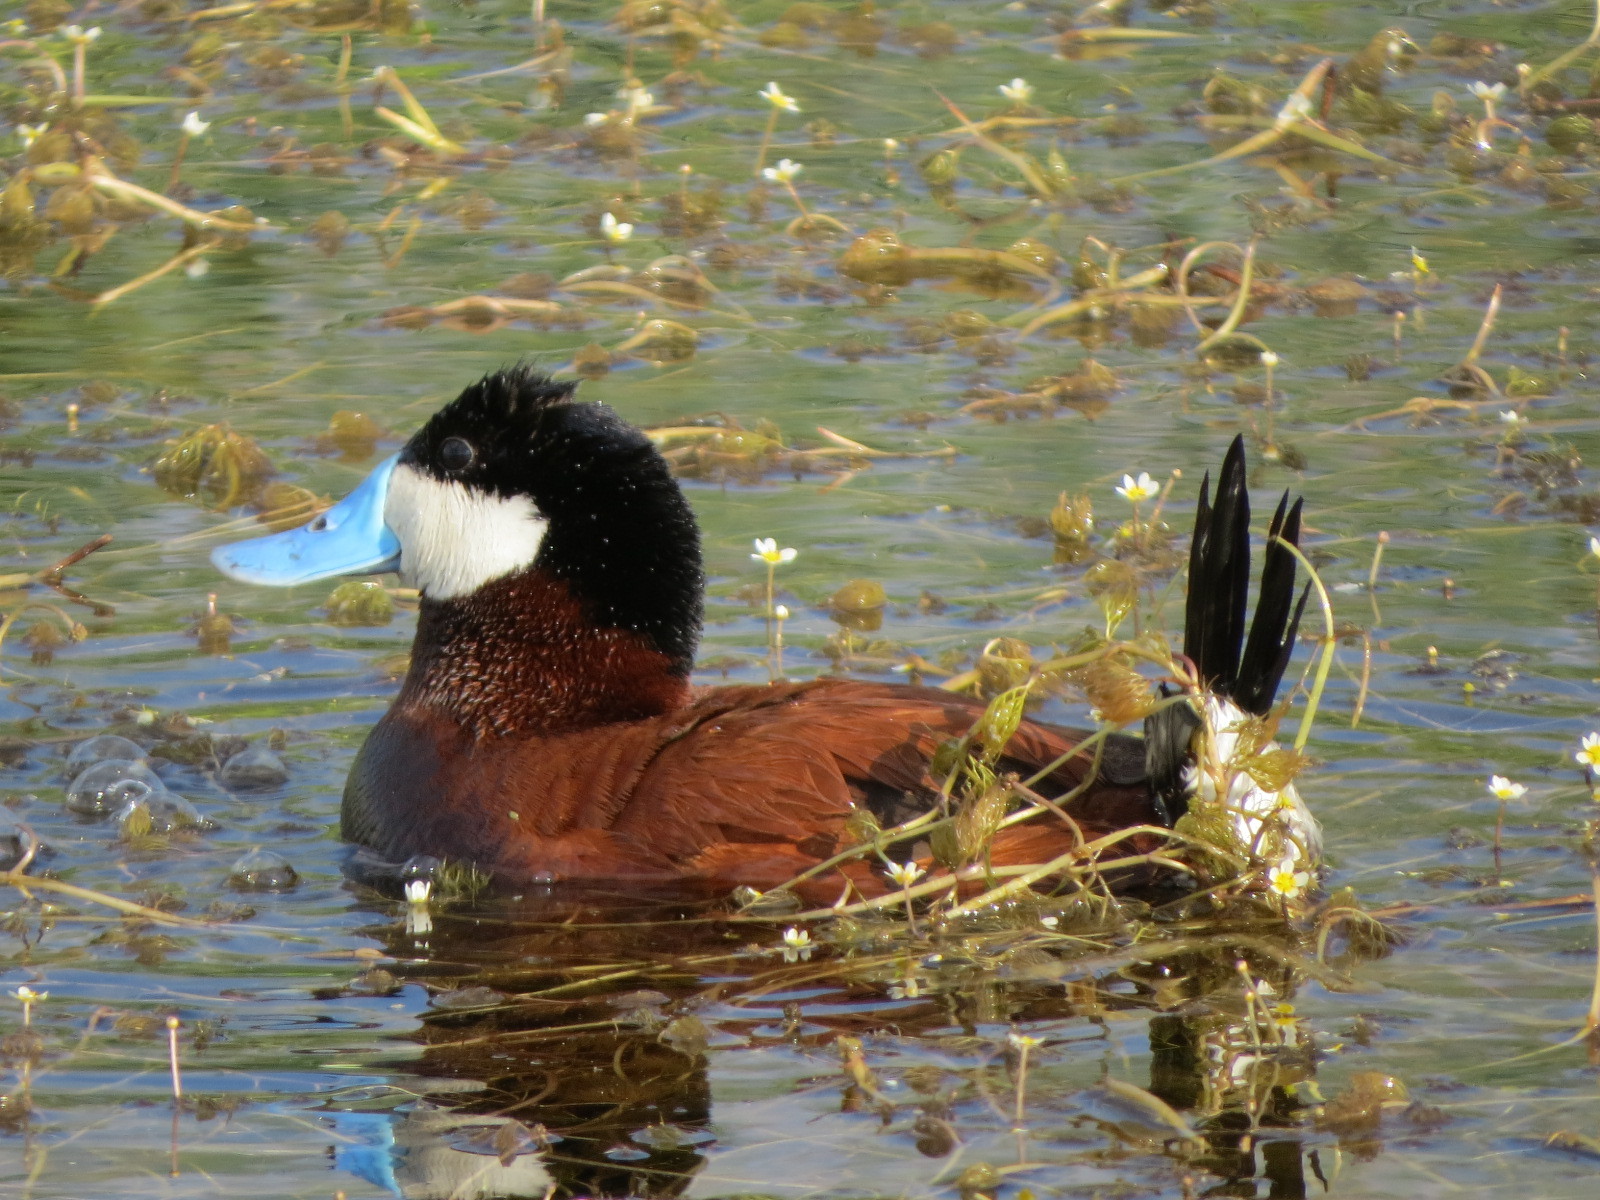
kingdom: Animalia
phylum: Chordata
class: Aves
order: Anseriformes
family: Anatidae
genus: Oxyura
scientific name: Oxyura jamaicensis
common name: Ruddy duck
